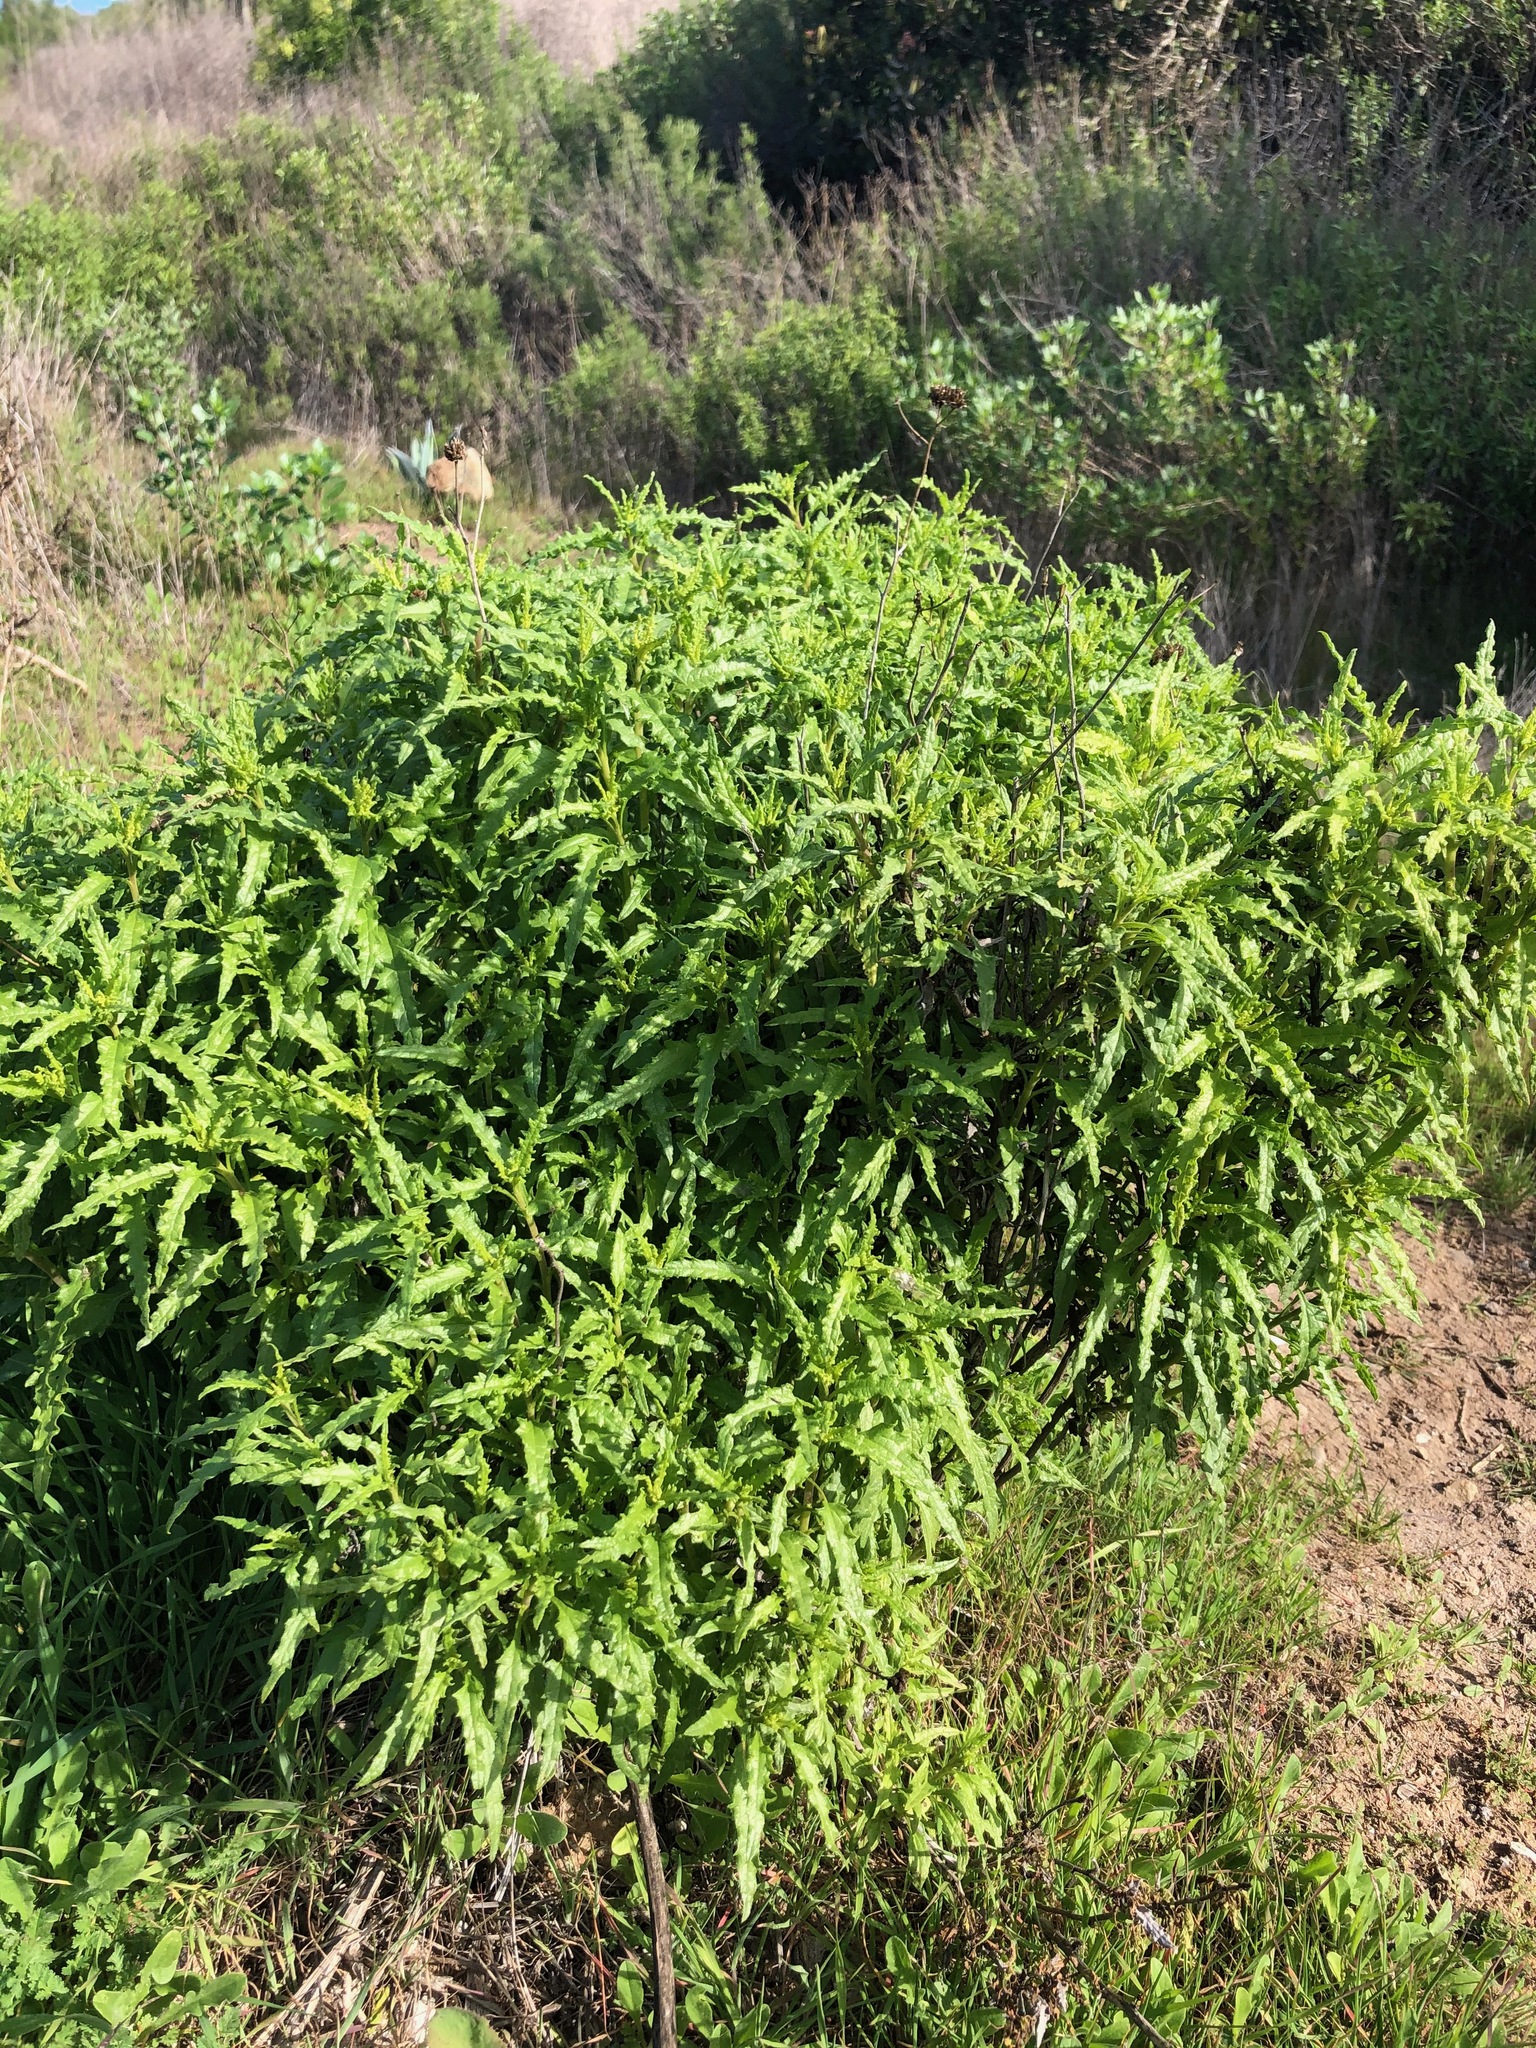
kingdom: Plantae
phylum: Tracheophyta
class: Magnoliopsida
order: Asterales
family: Asteraceae
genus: Bahiopsis
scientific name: Bahiopsis laciniata
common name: San diego county viguiera
